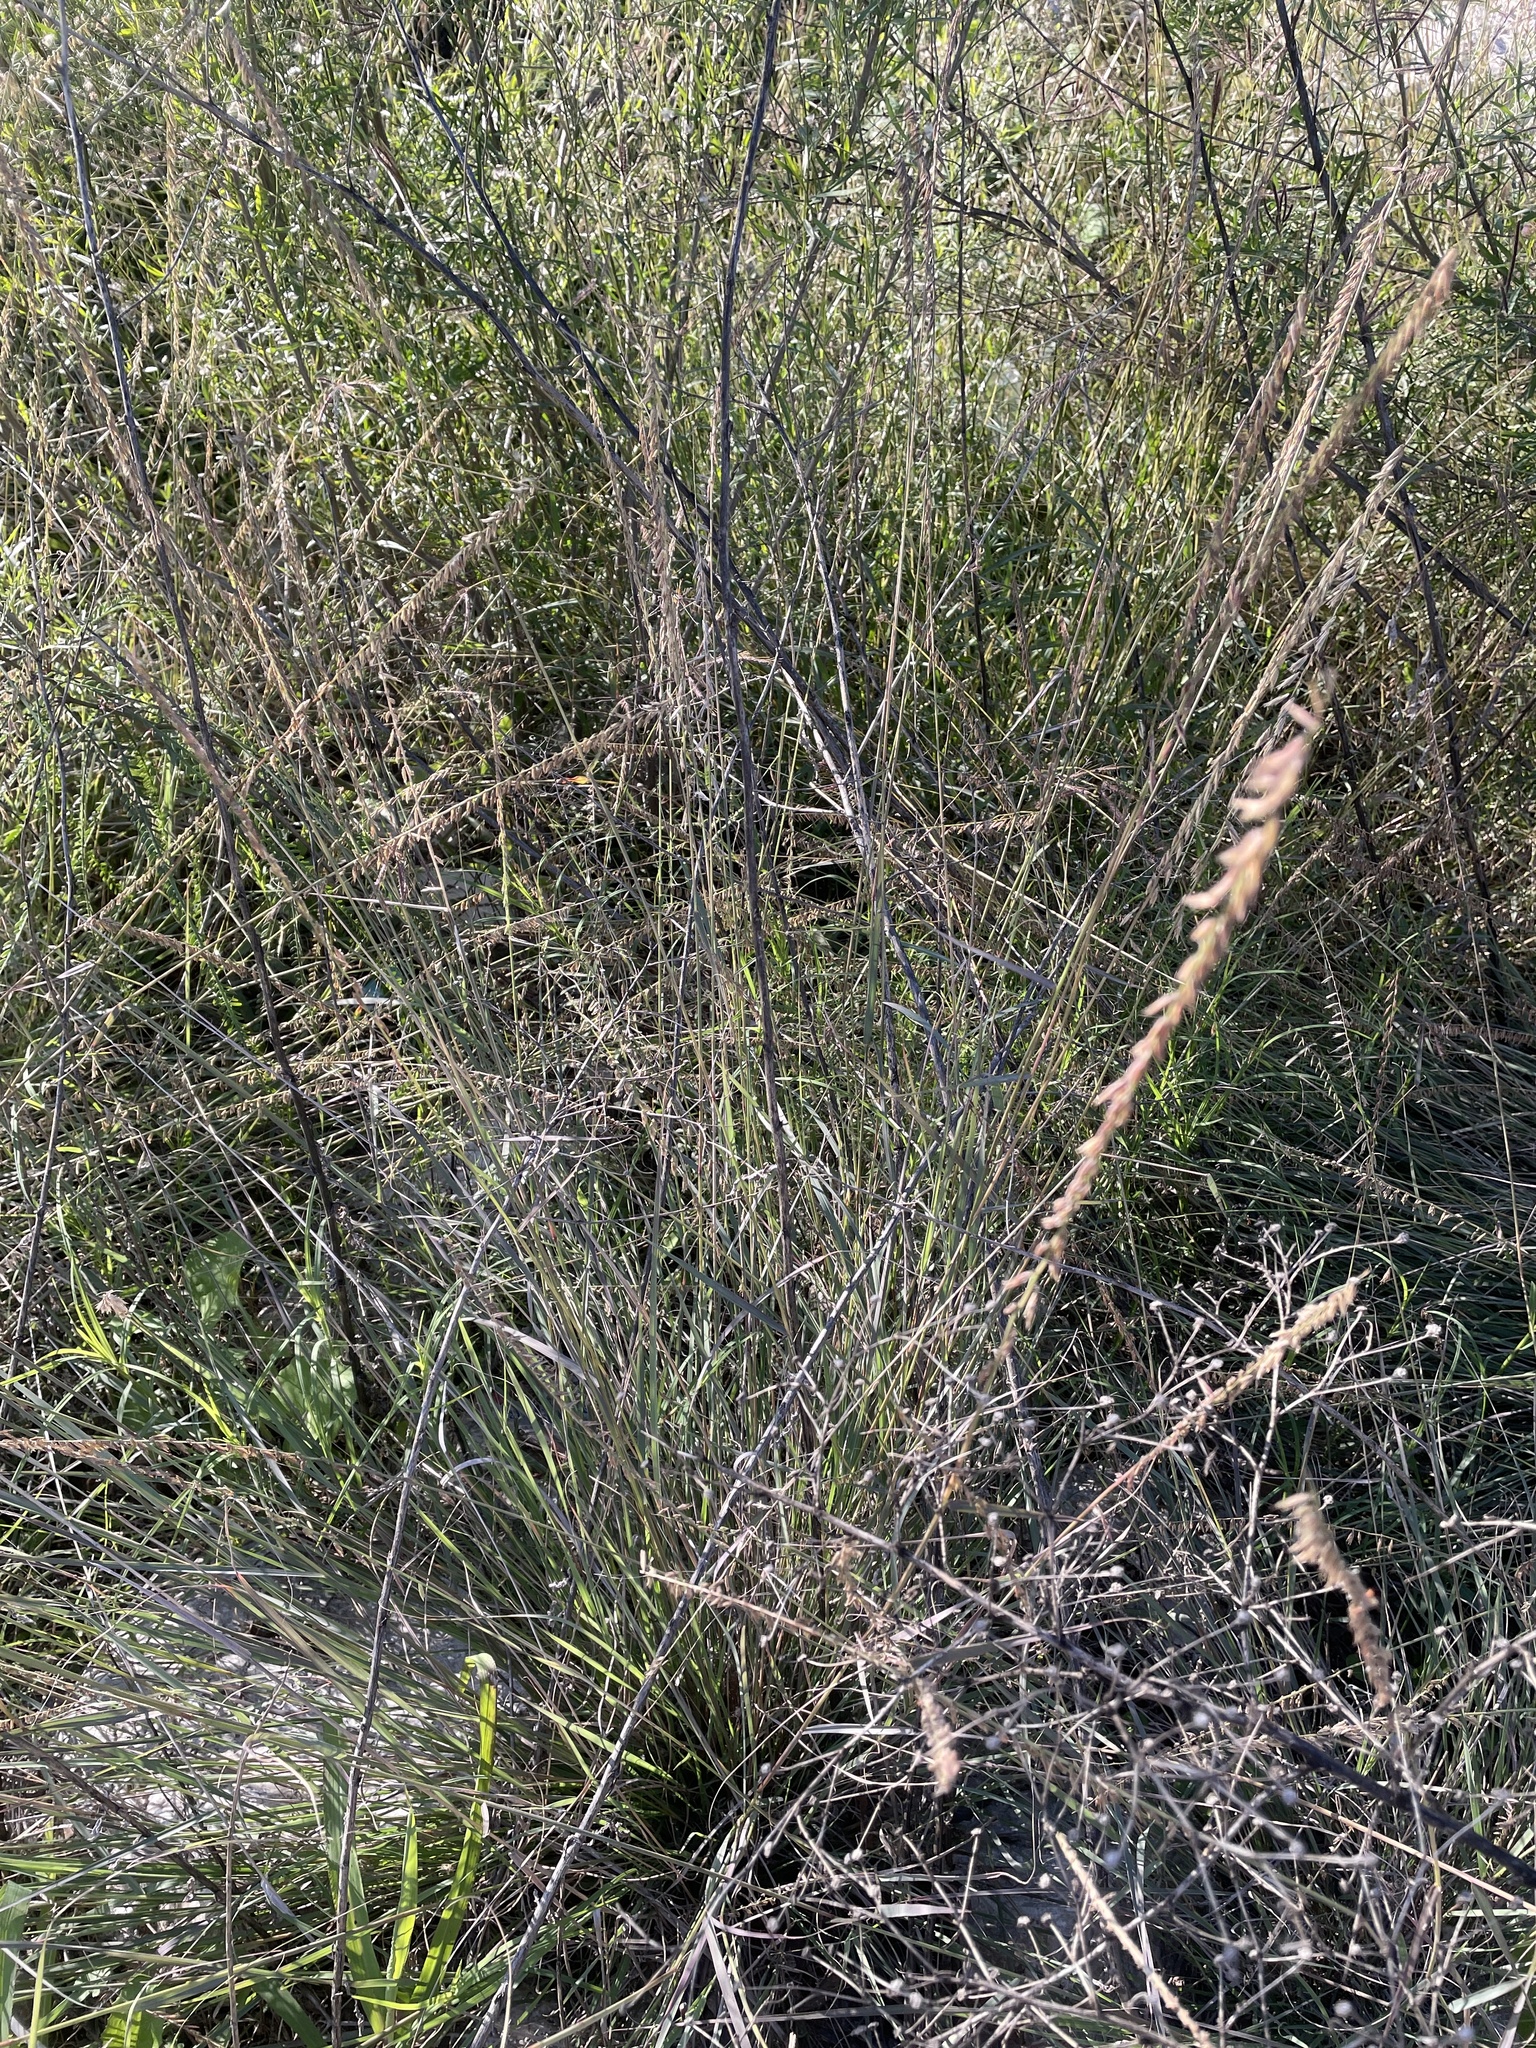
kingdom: Plantae
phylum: Tracheophyta
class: Liliopsida
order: Poales
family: Poaceae
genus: Bouteloua
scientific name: Bouteloua curtipendula
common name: Side-oats grama
